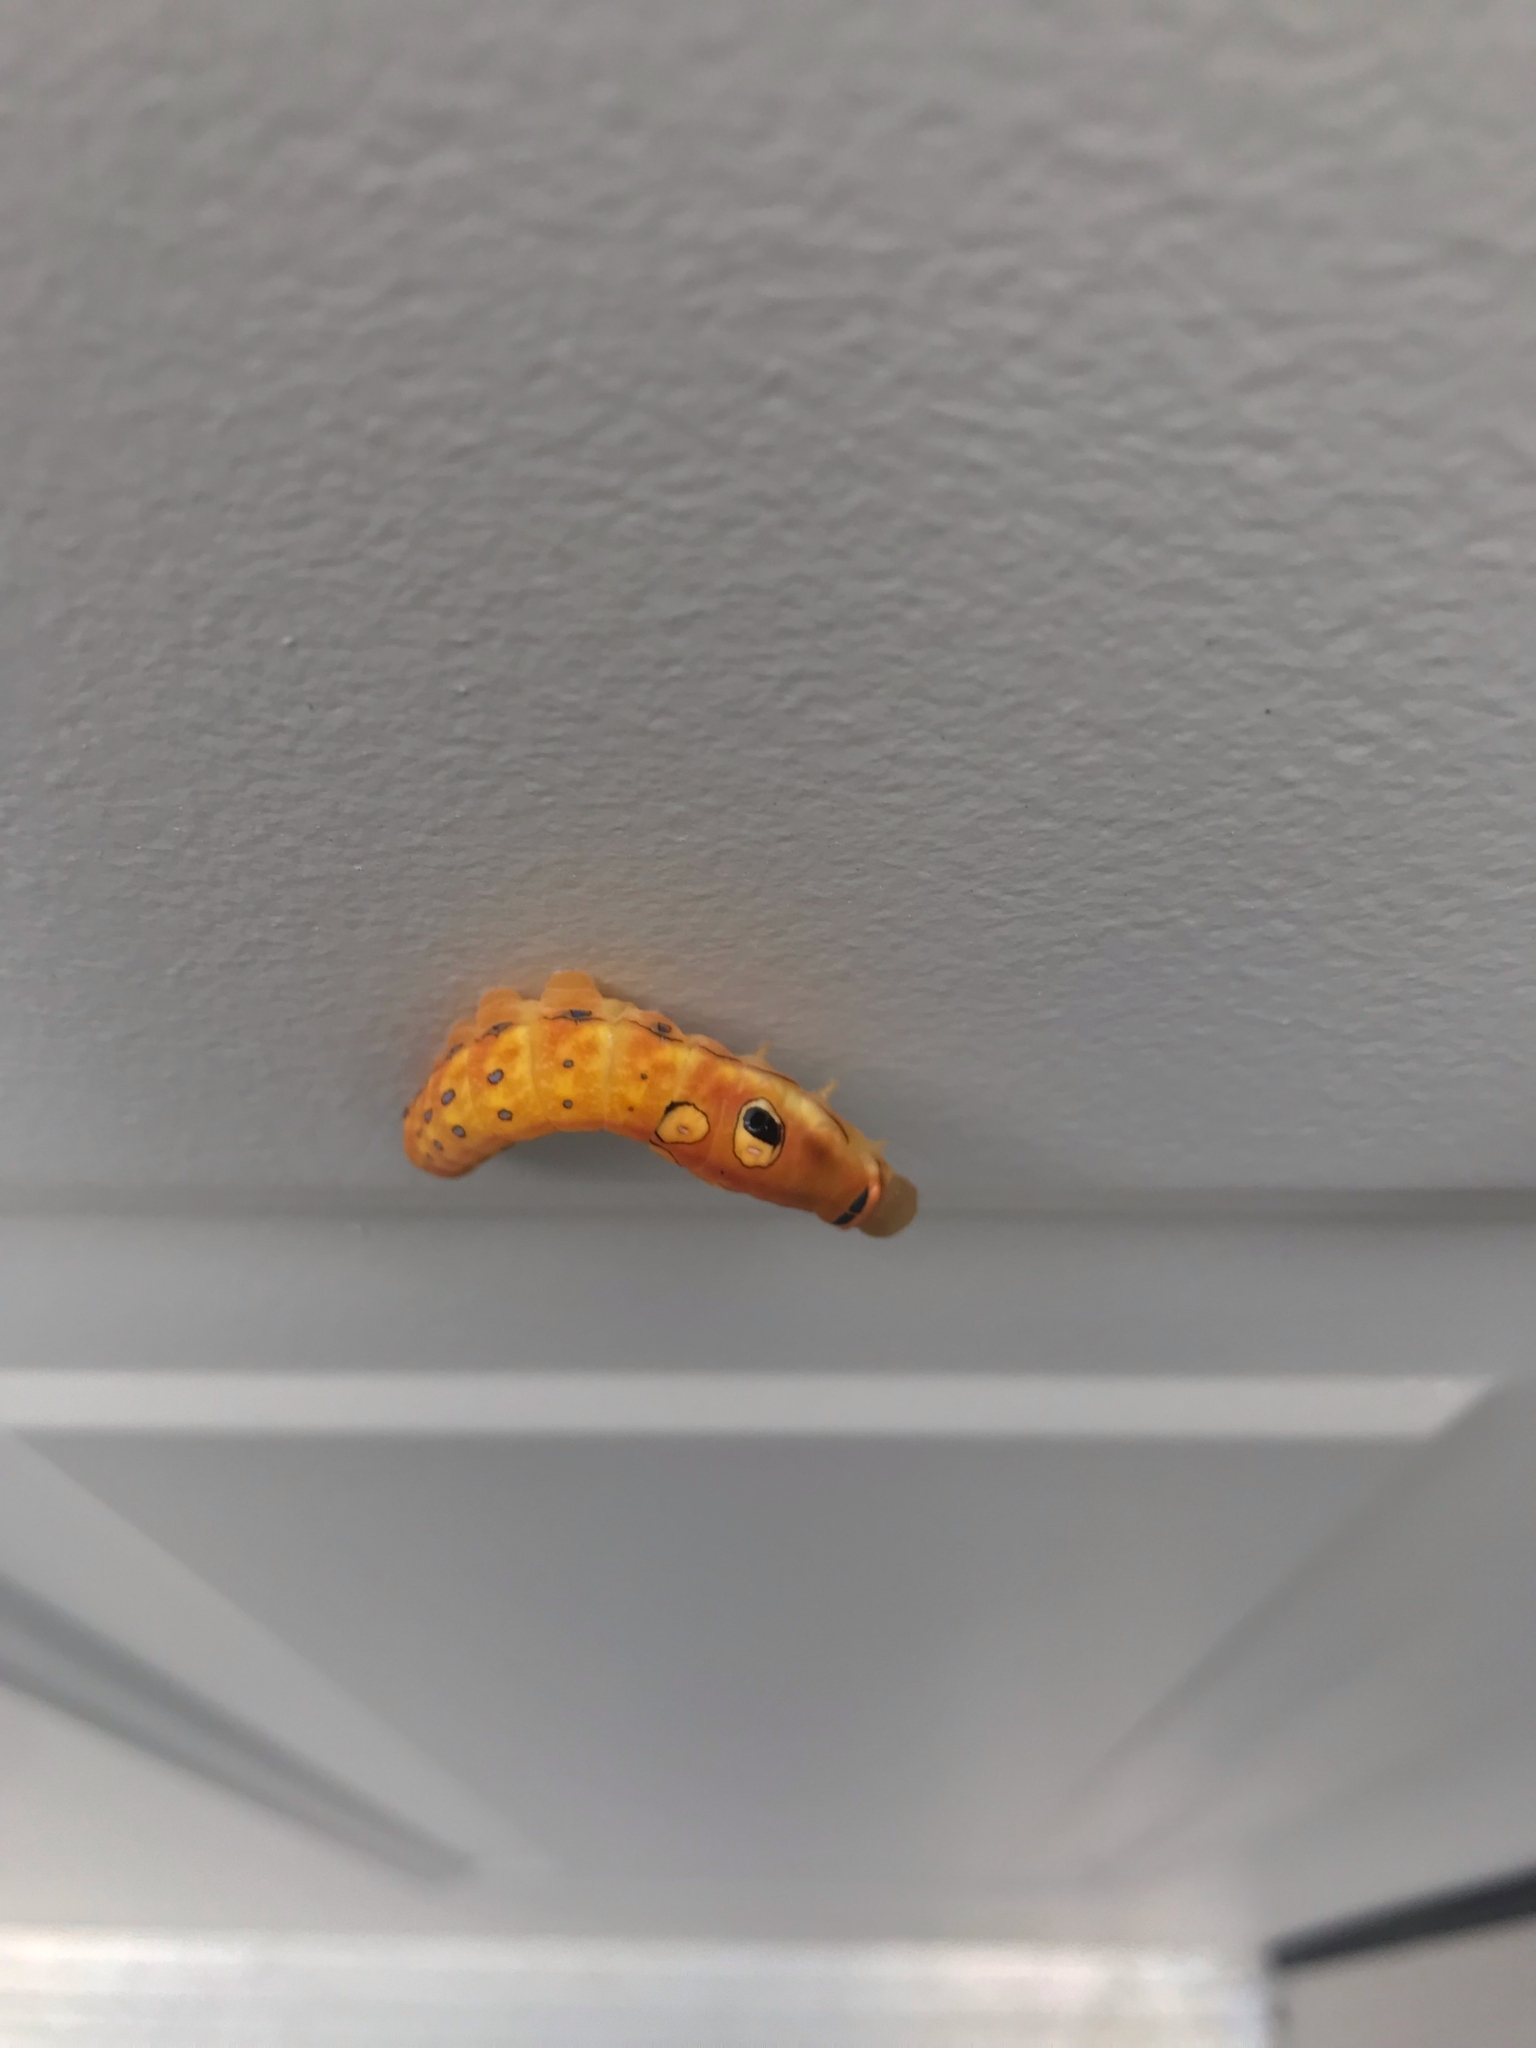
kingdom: Animalia
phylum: Arthropoda
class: Insecta
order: Lepidoptera
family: Papilionidae
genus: Papilio
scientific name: Papilio troilus
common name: Spicebush swallowtail
